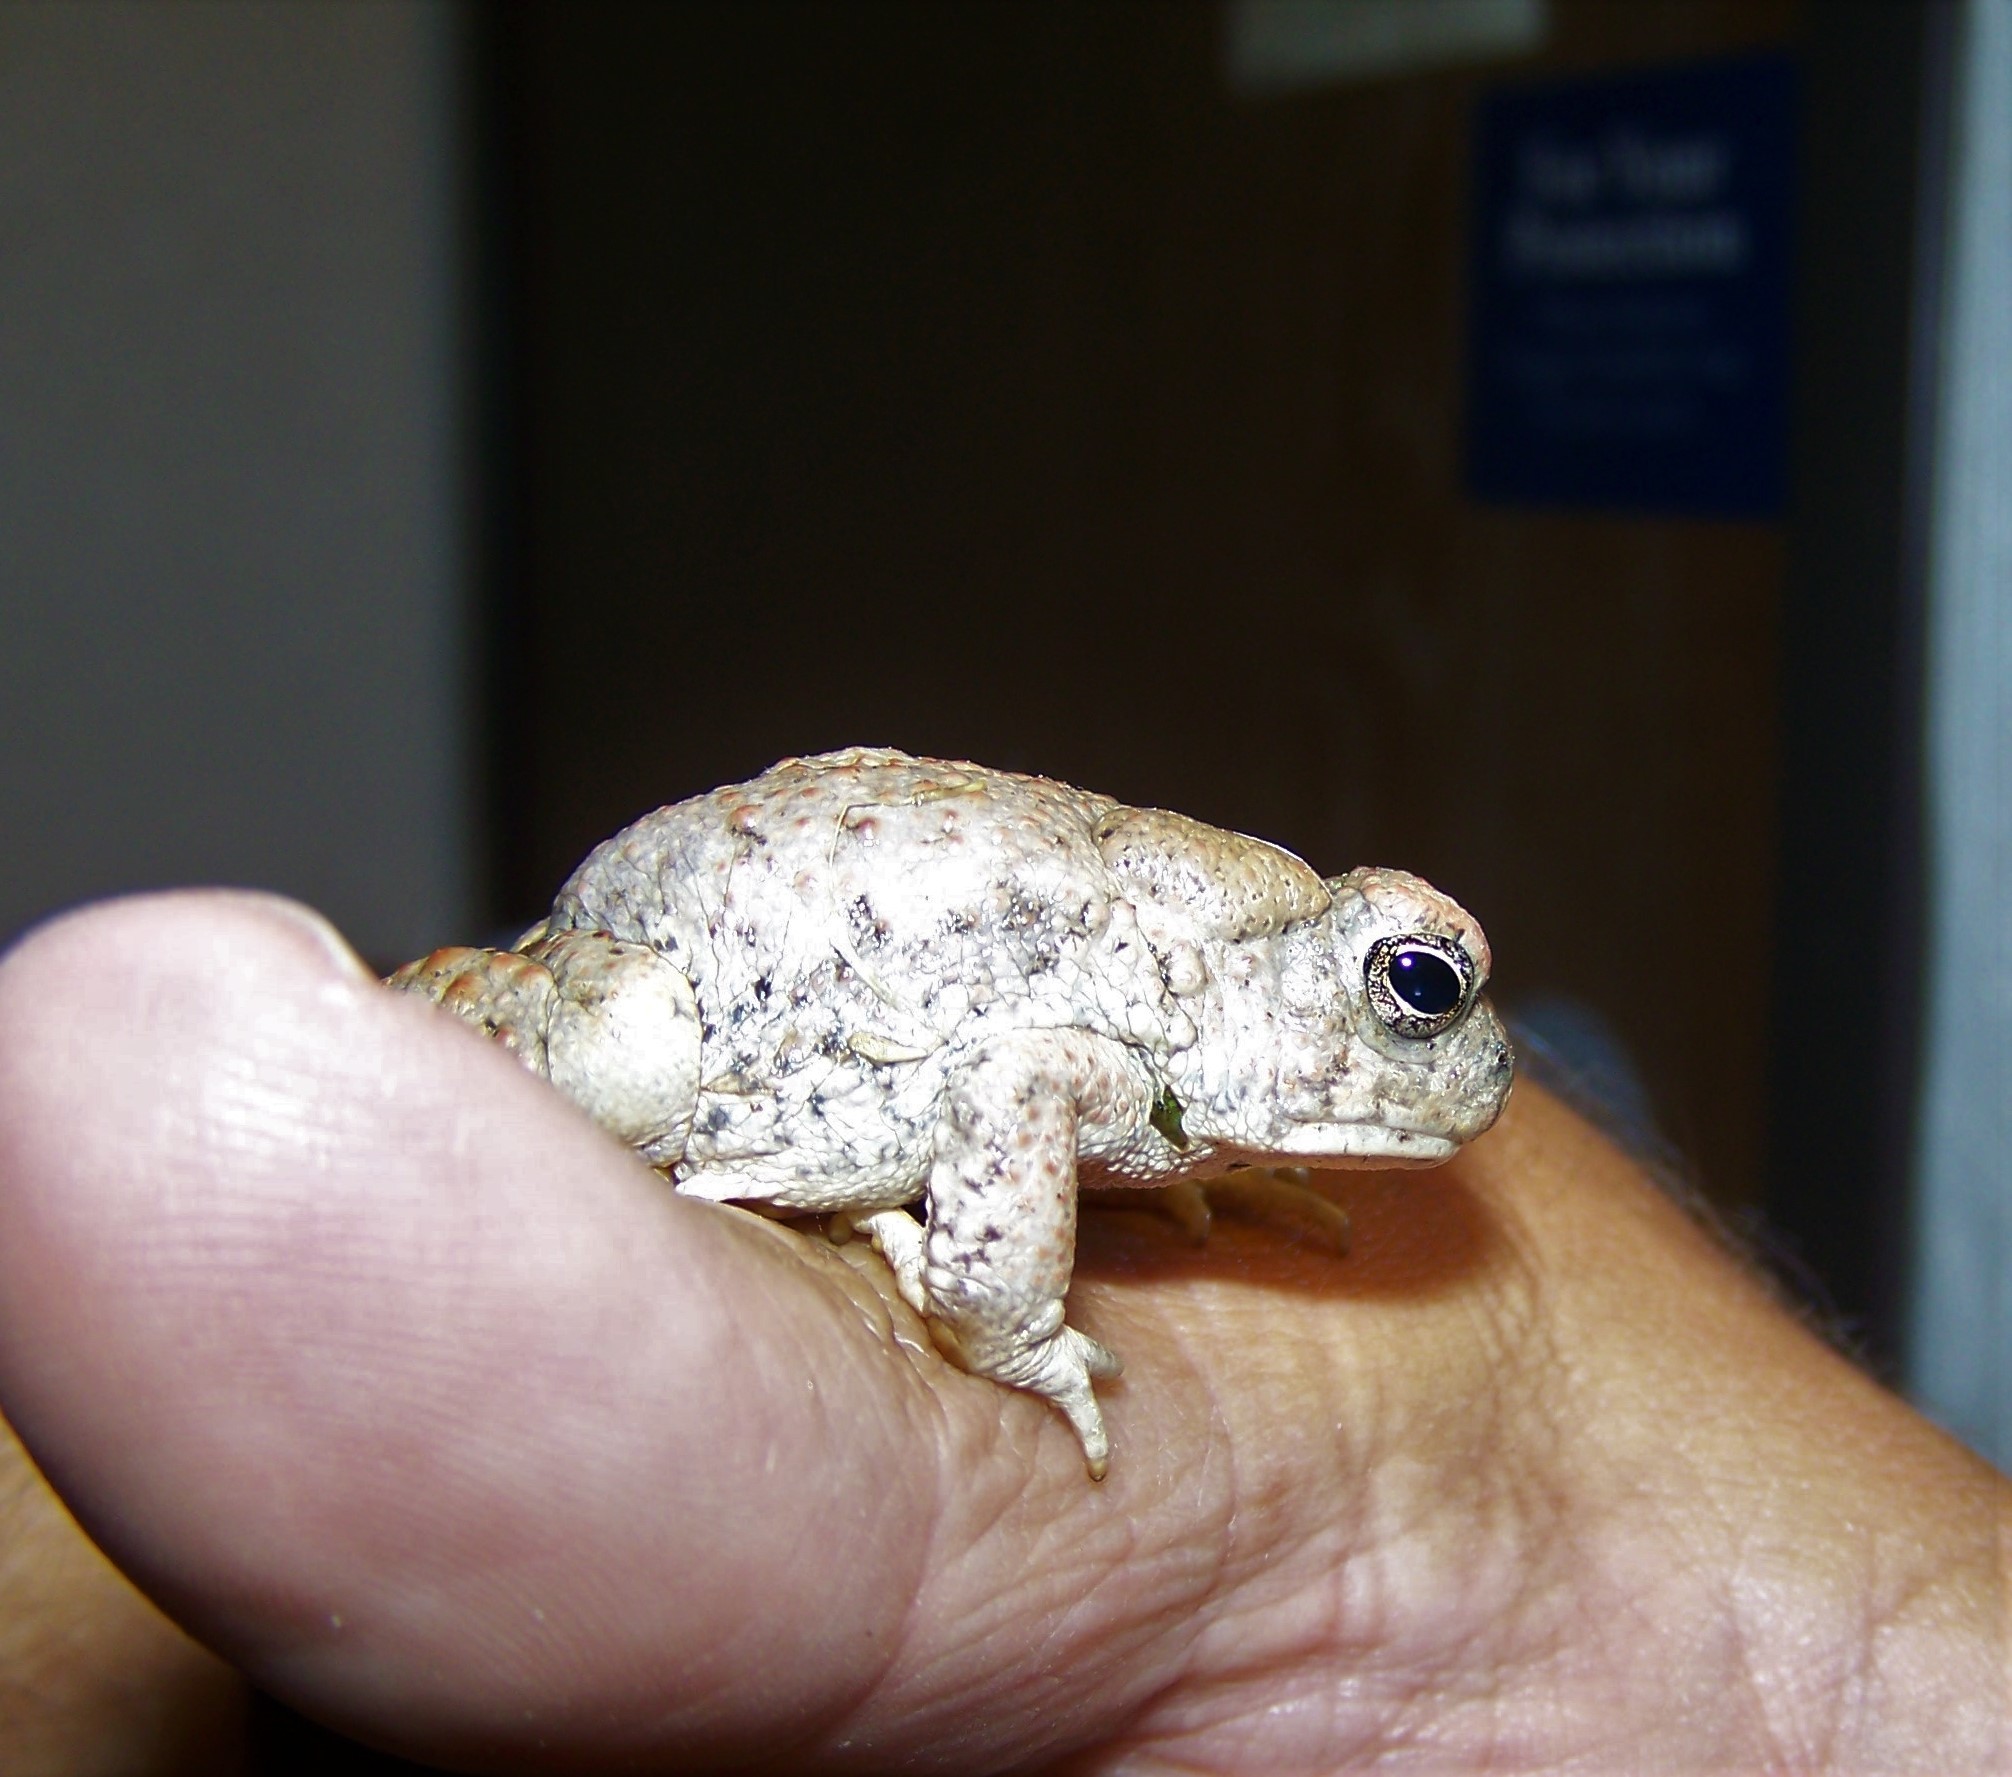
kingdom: Animalia
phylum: Chordata
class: Amphibia
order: Anura
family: Bufonidae
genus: Anaxyrus
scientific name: Anaxyrus microscaphus
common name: Arizona toad
